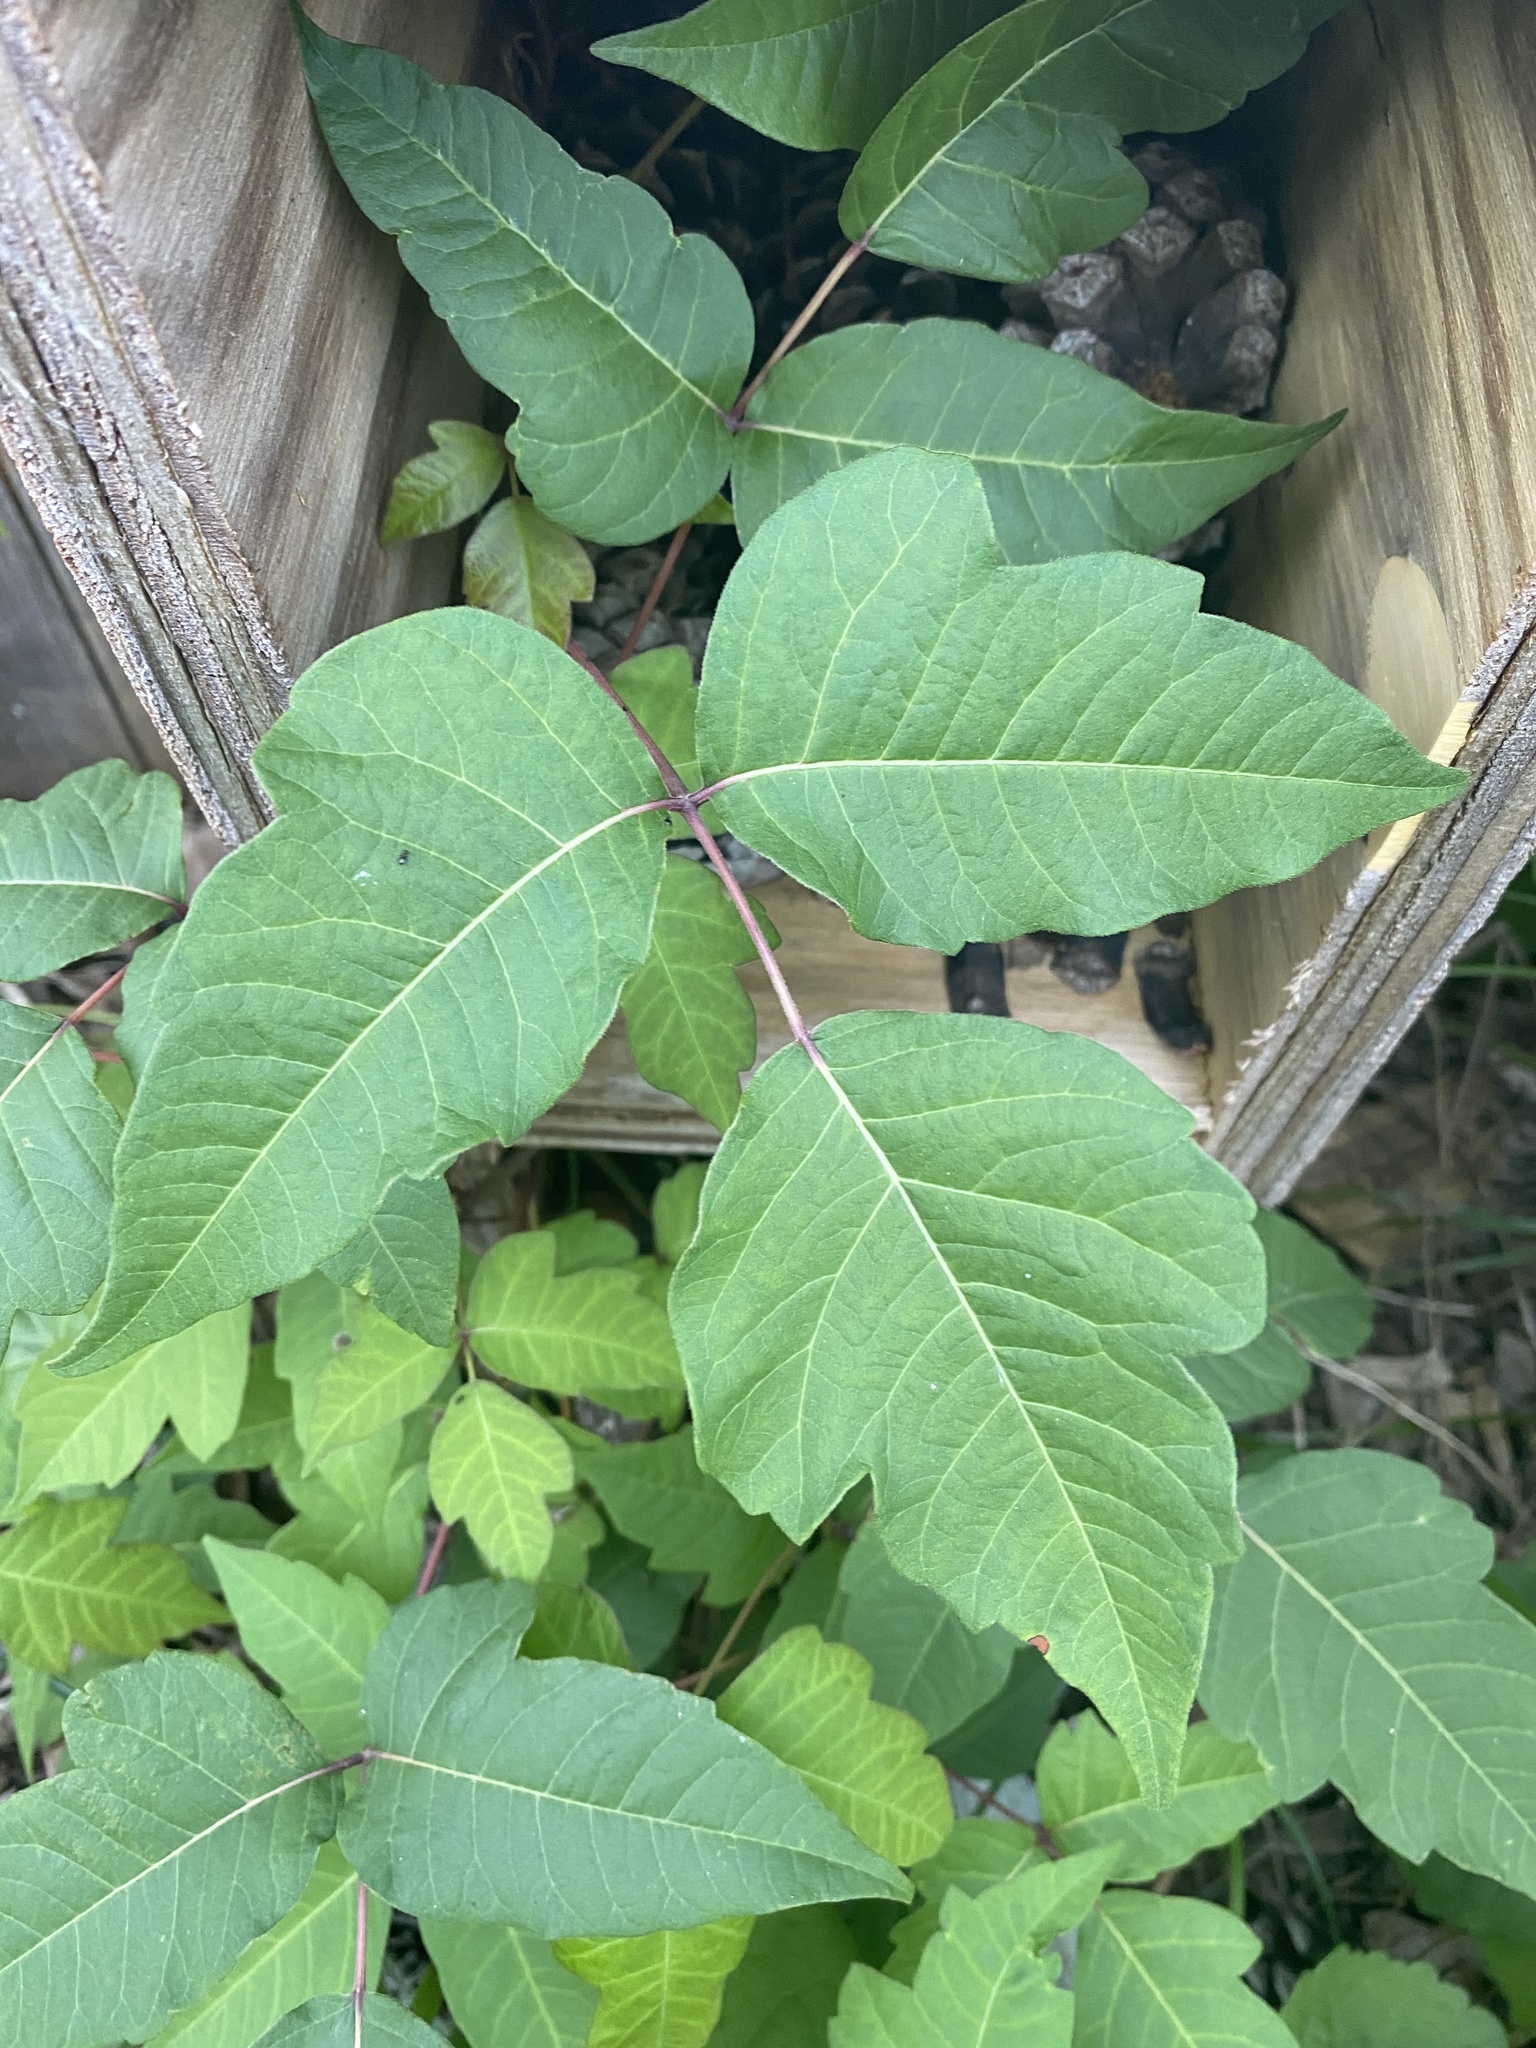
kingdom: Plantae
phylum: Tracheophyta
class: Magnoliopsida
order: Sapindales
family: Anacardiaceae
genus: Toxicodendron
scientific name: Toxicodendron radicans
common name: Poison ivy
